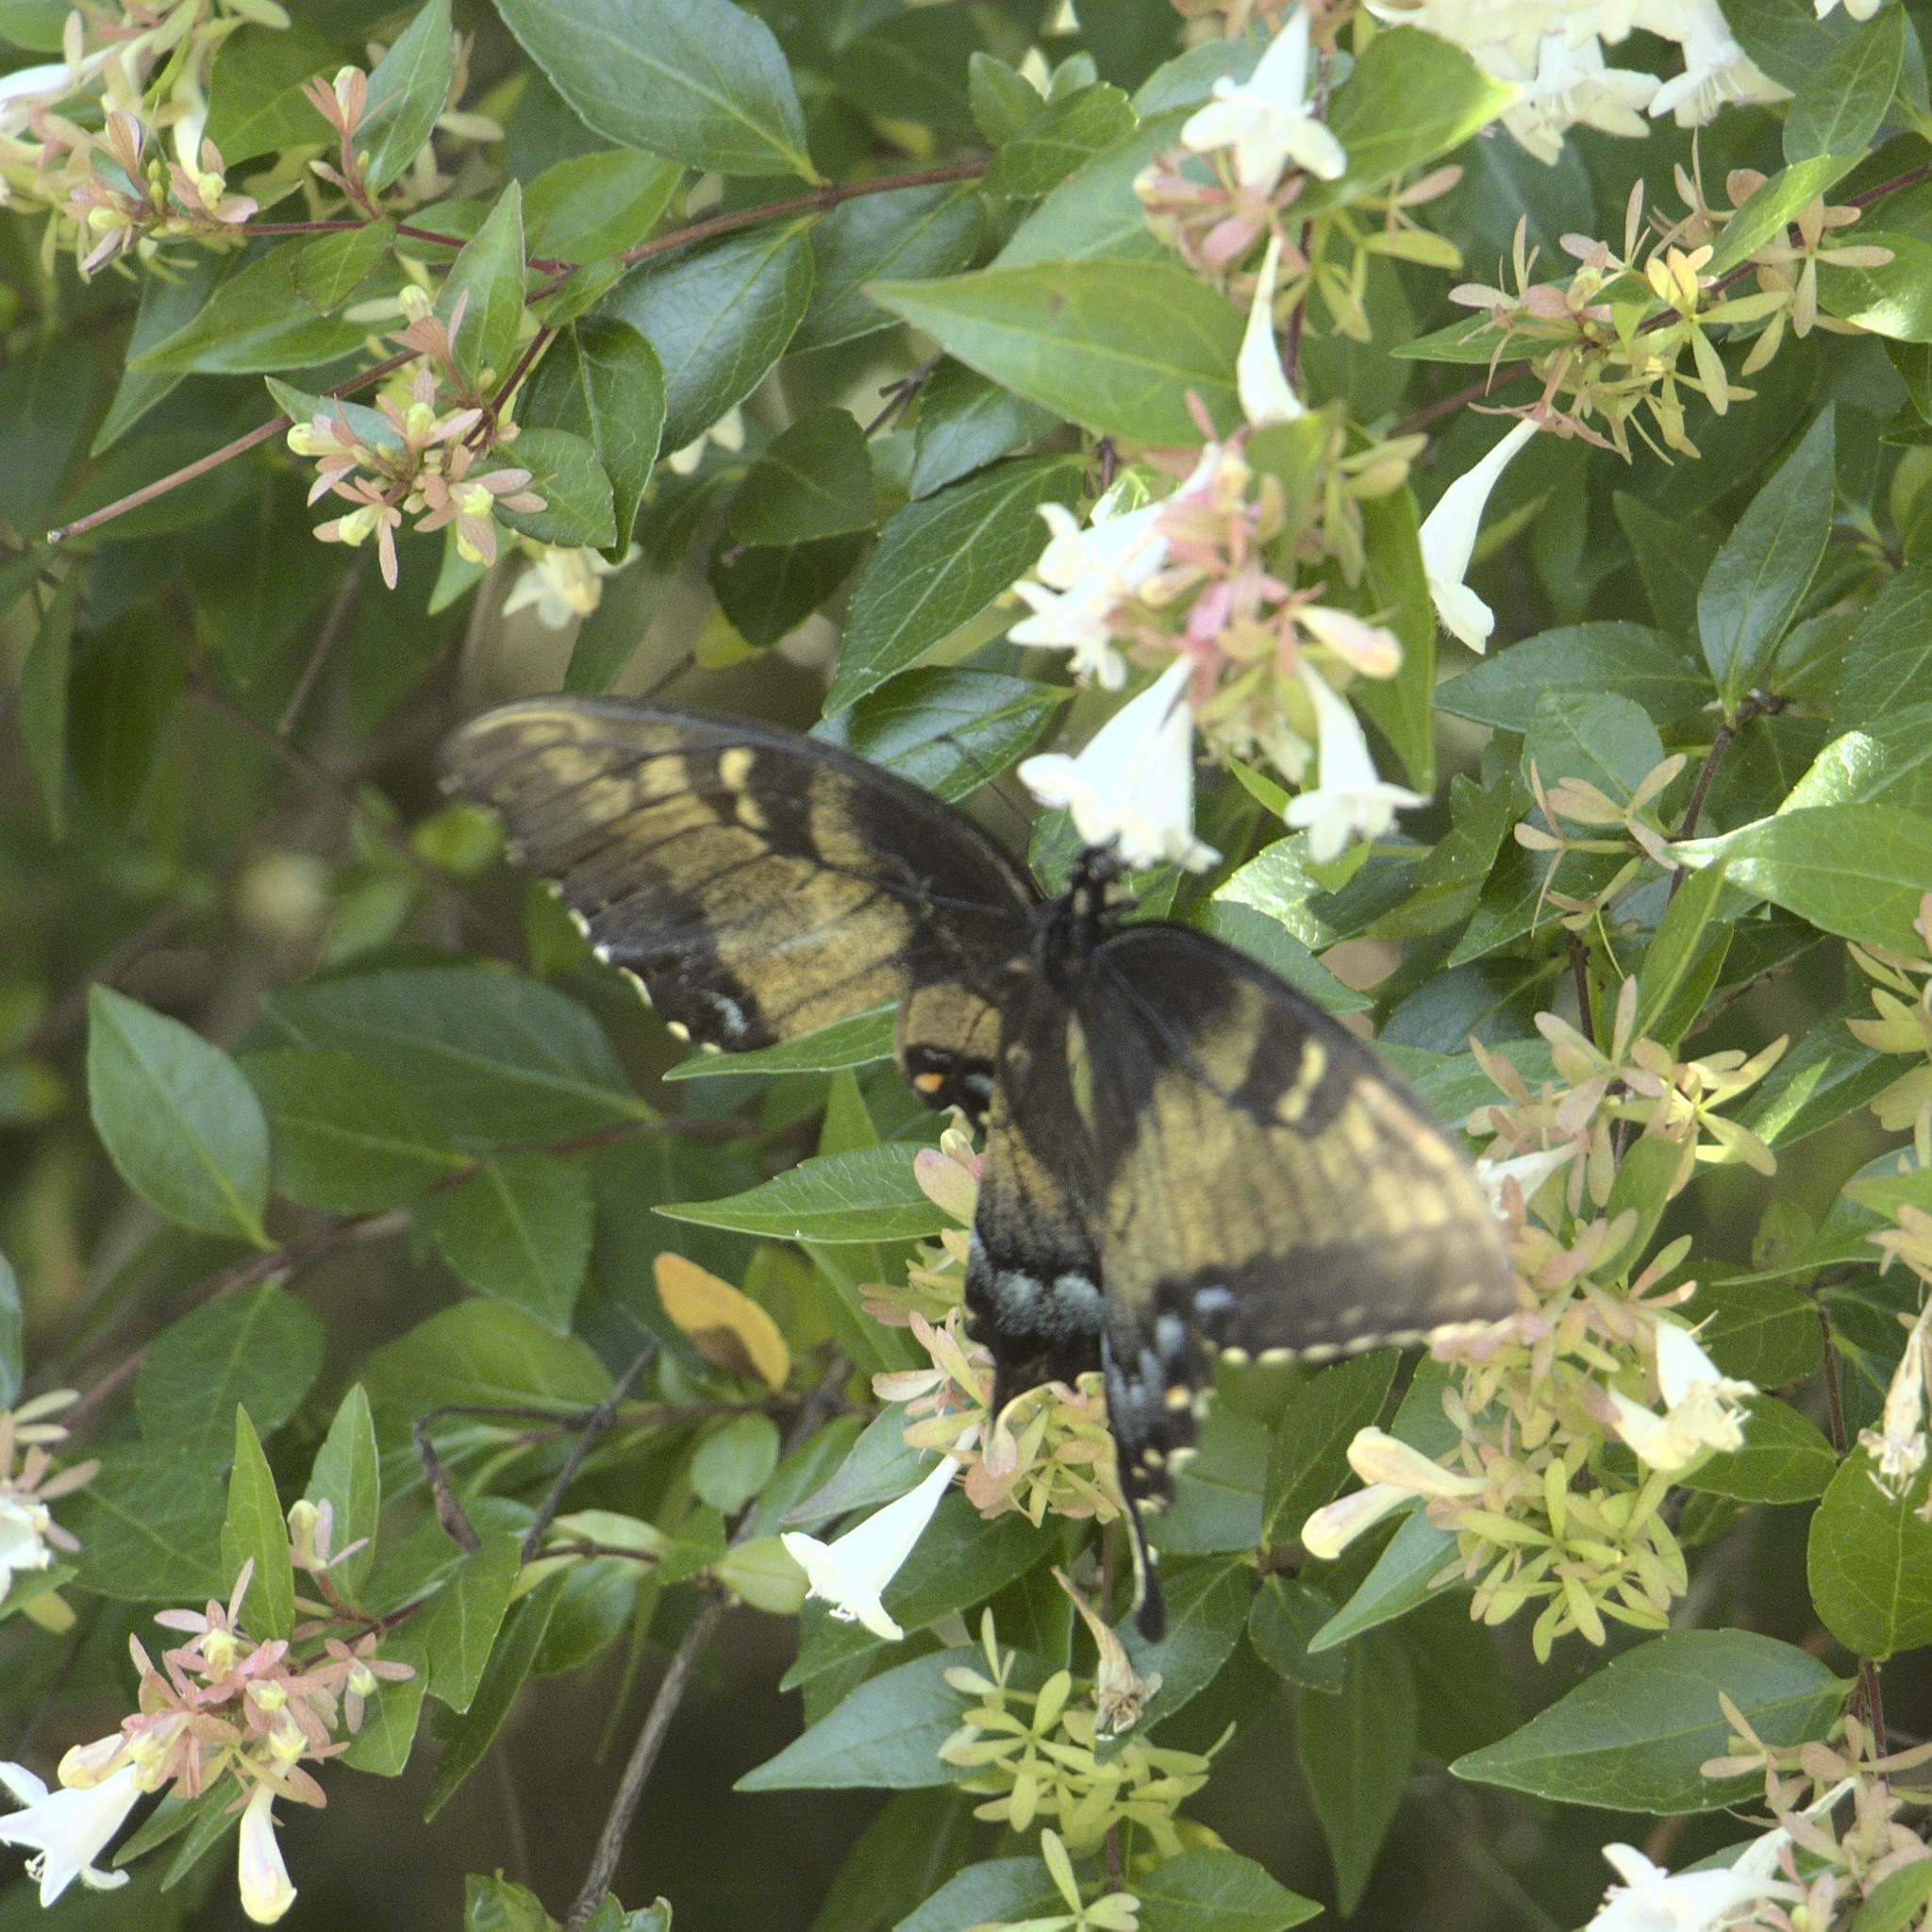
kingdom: Animalia
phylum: Arthropoda
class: Insecta
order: Lepidoptera
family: Papilionidae
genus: Papilio
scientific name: Papilio glaucus
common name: Tiger swallowtail
